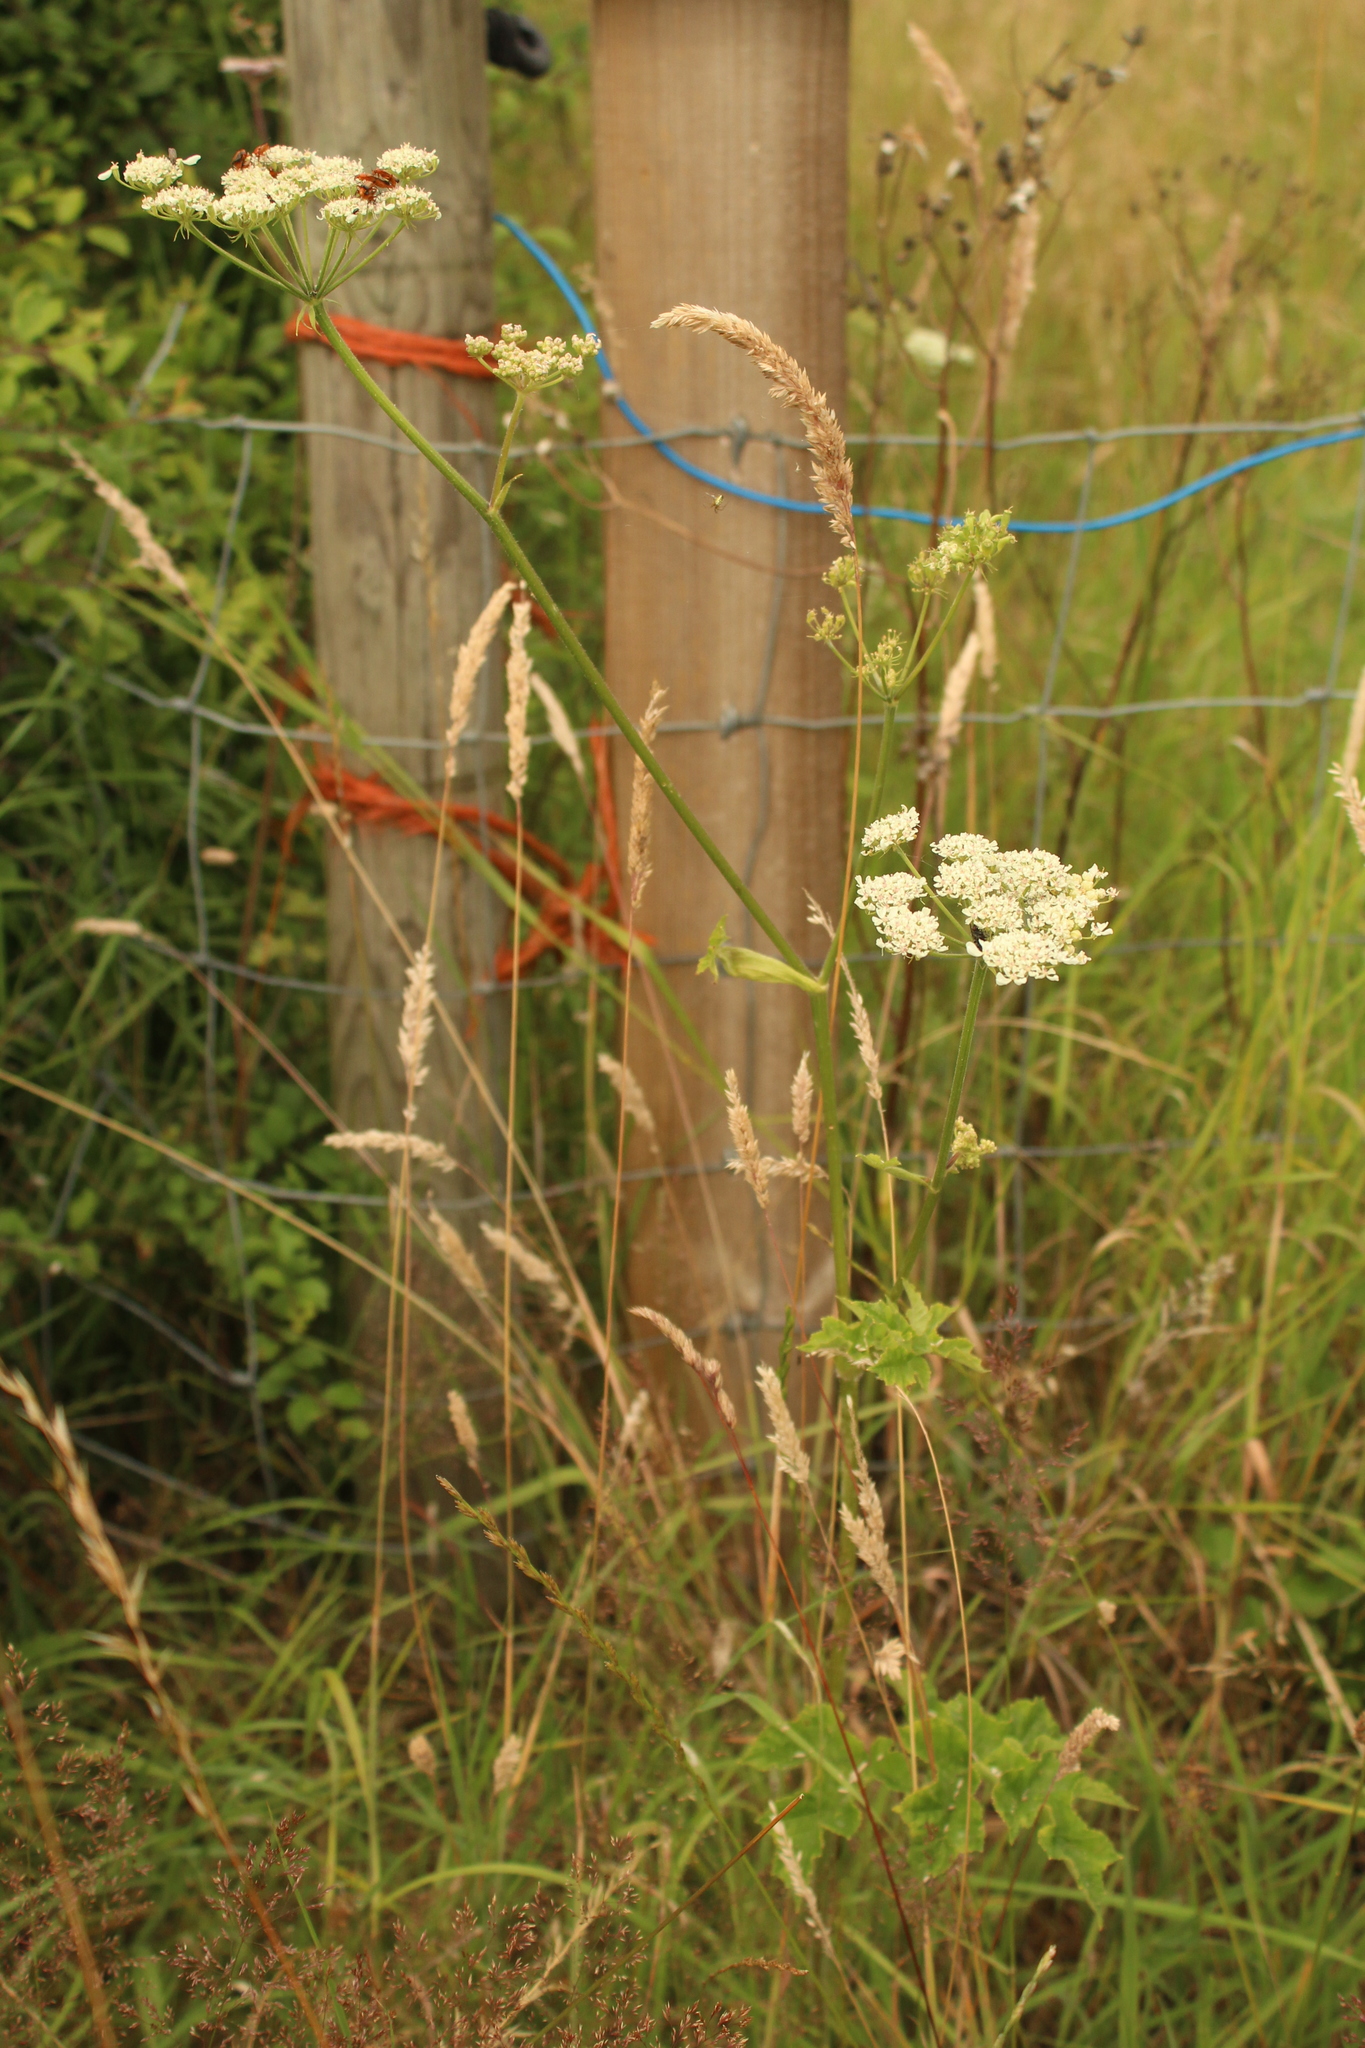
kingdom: Plantae
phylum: Tracheophyta
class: Magnoliopsida
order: Apiales
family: Apiaceae
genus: Heracleum
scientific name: Heracleum sphondylium
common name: Hogweed
